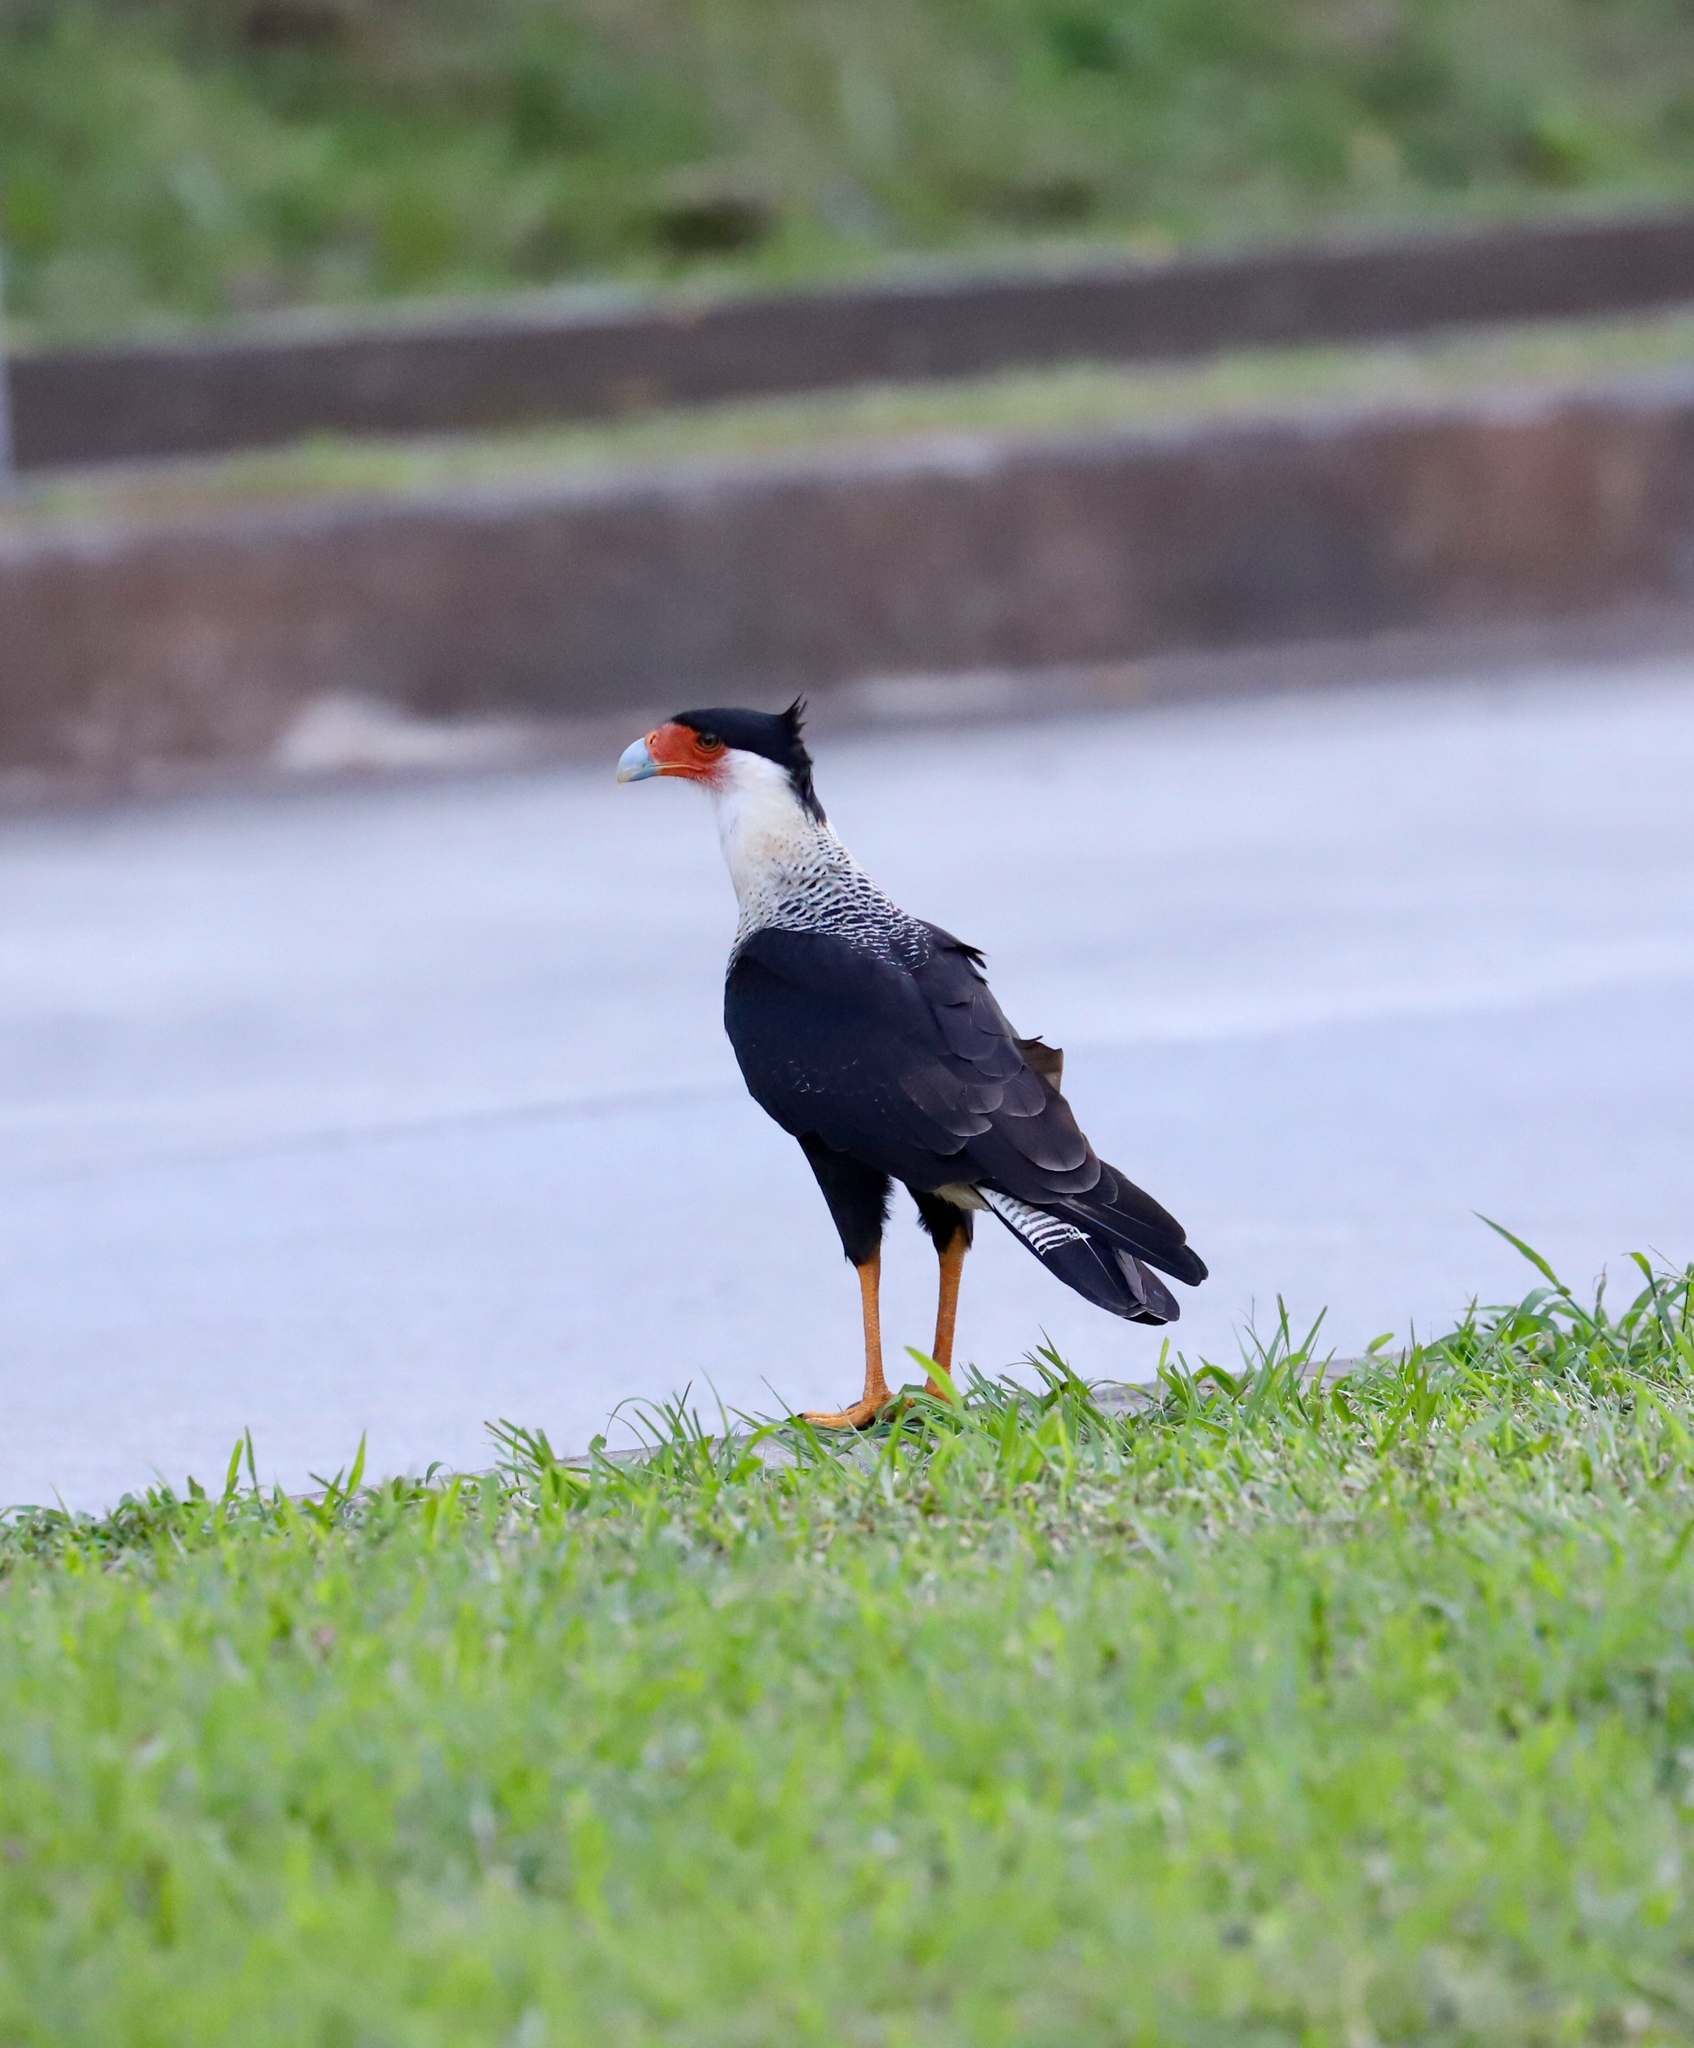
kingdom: Animalia
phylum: Chordata
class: Aves
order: Falconiformes
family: Falconidae
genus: Caracara
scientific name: Caracara plancus
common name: Southern caracara
